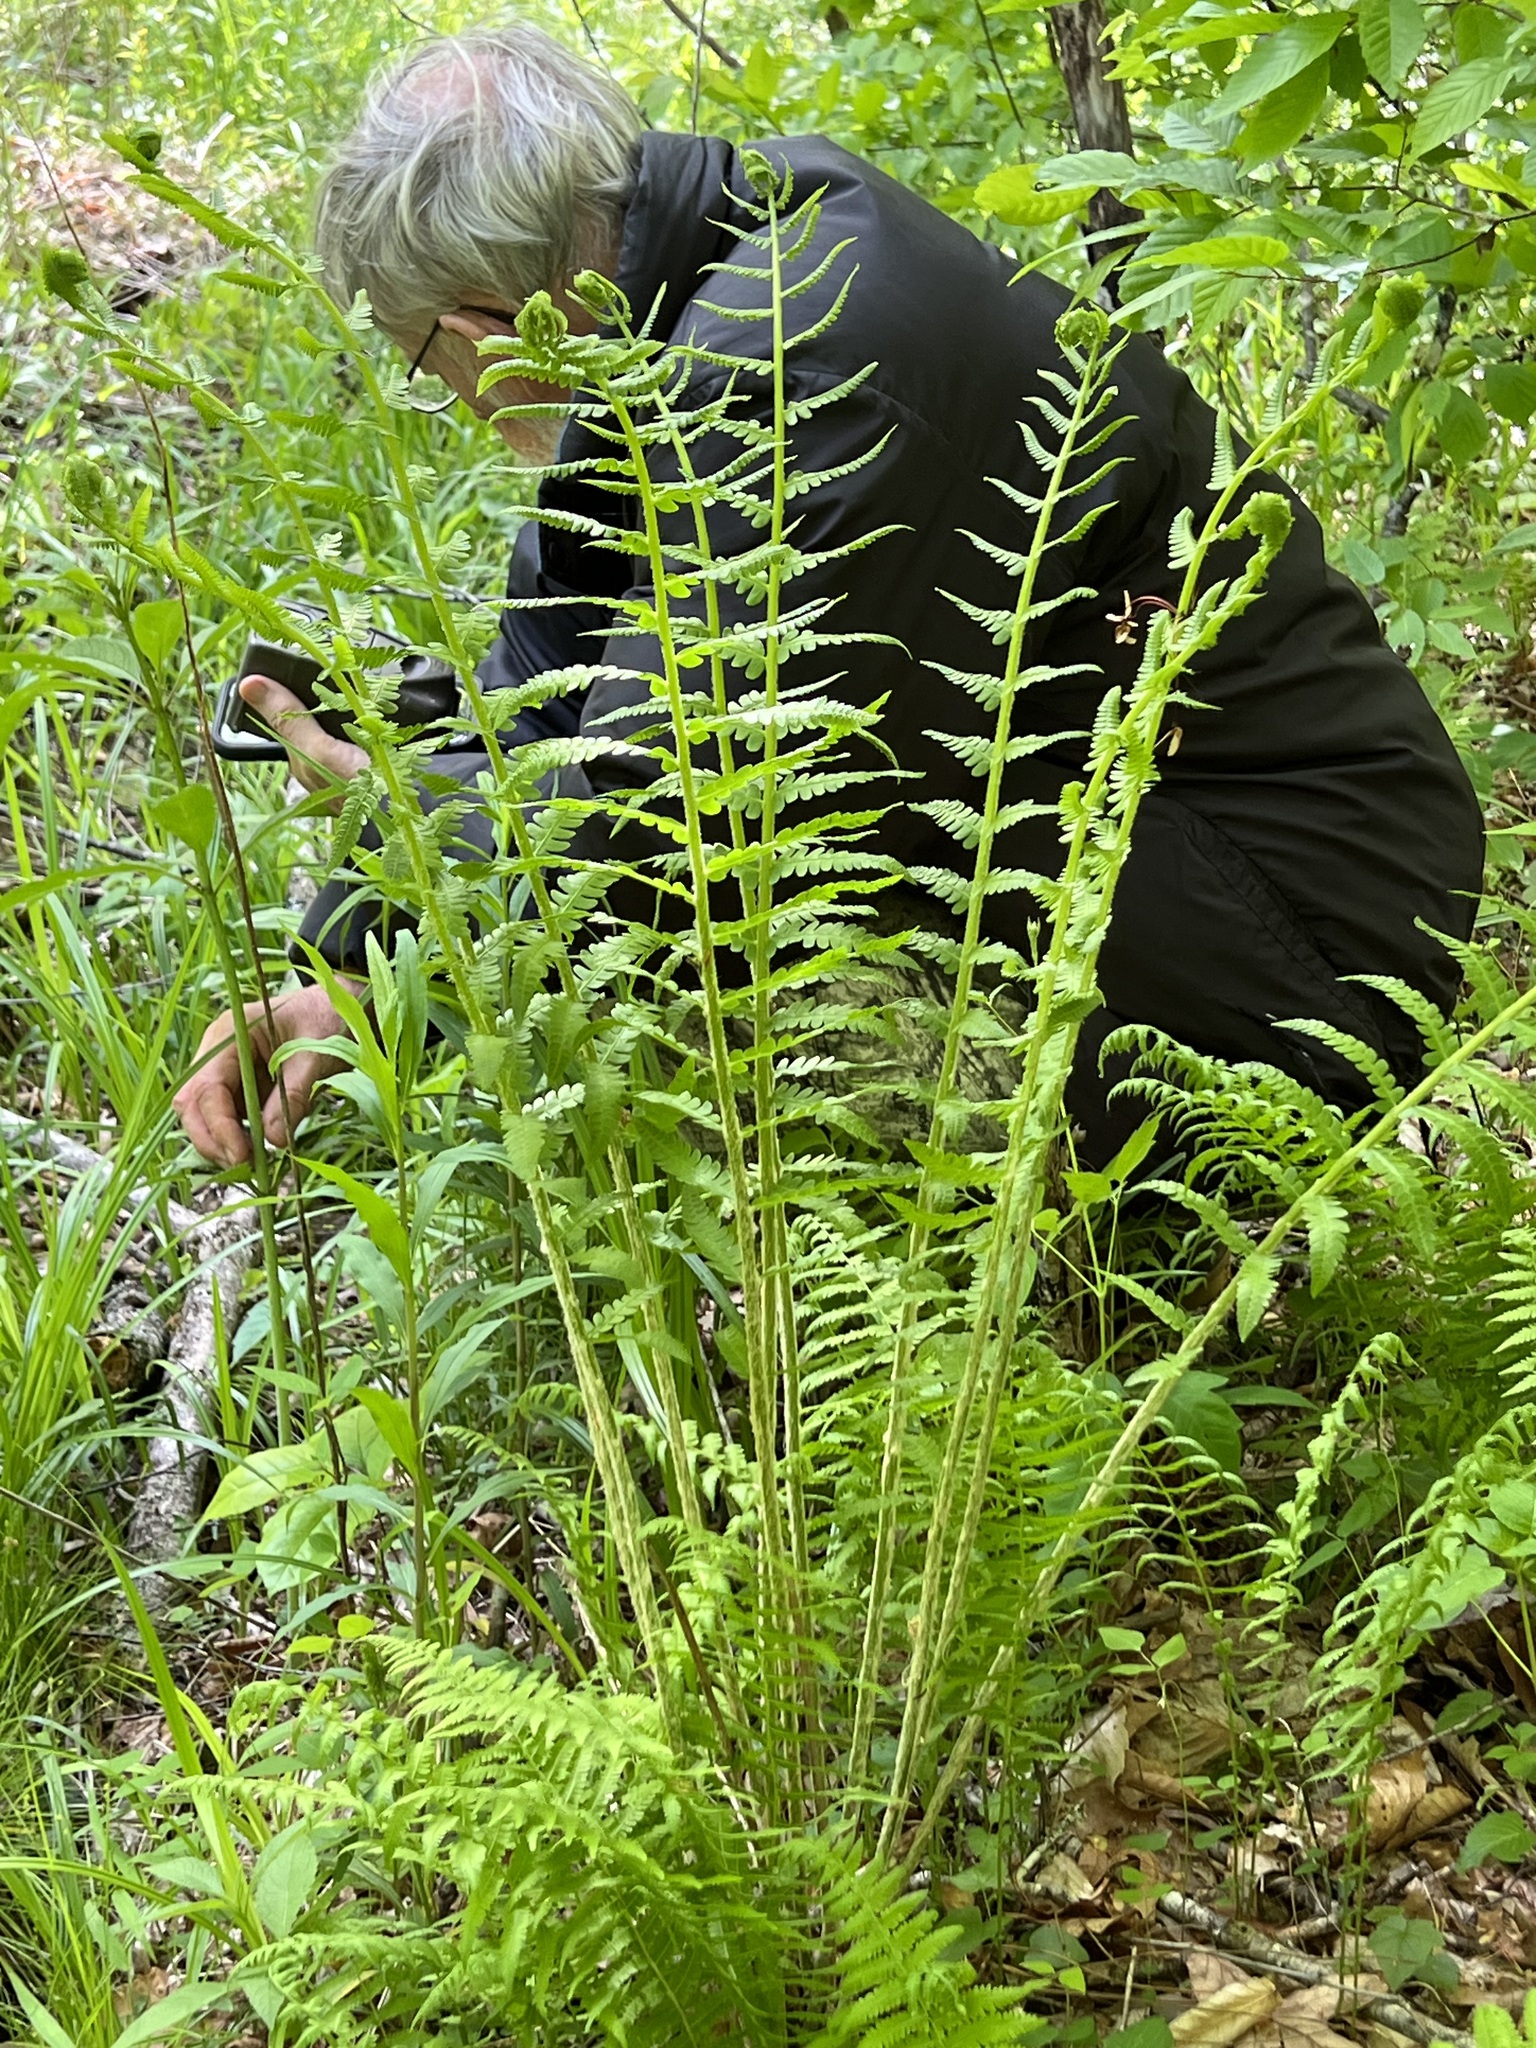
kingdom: Plantae
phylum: Tracheophyta
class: Polypodiopsida
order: Osmundales
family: Osmundaceae
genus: Osmundastrum
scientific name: Osmundastrum cinnamomeum
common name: Cinnamon fern
